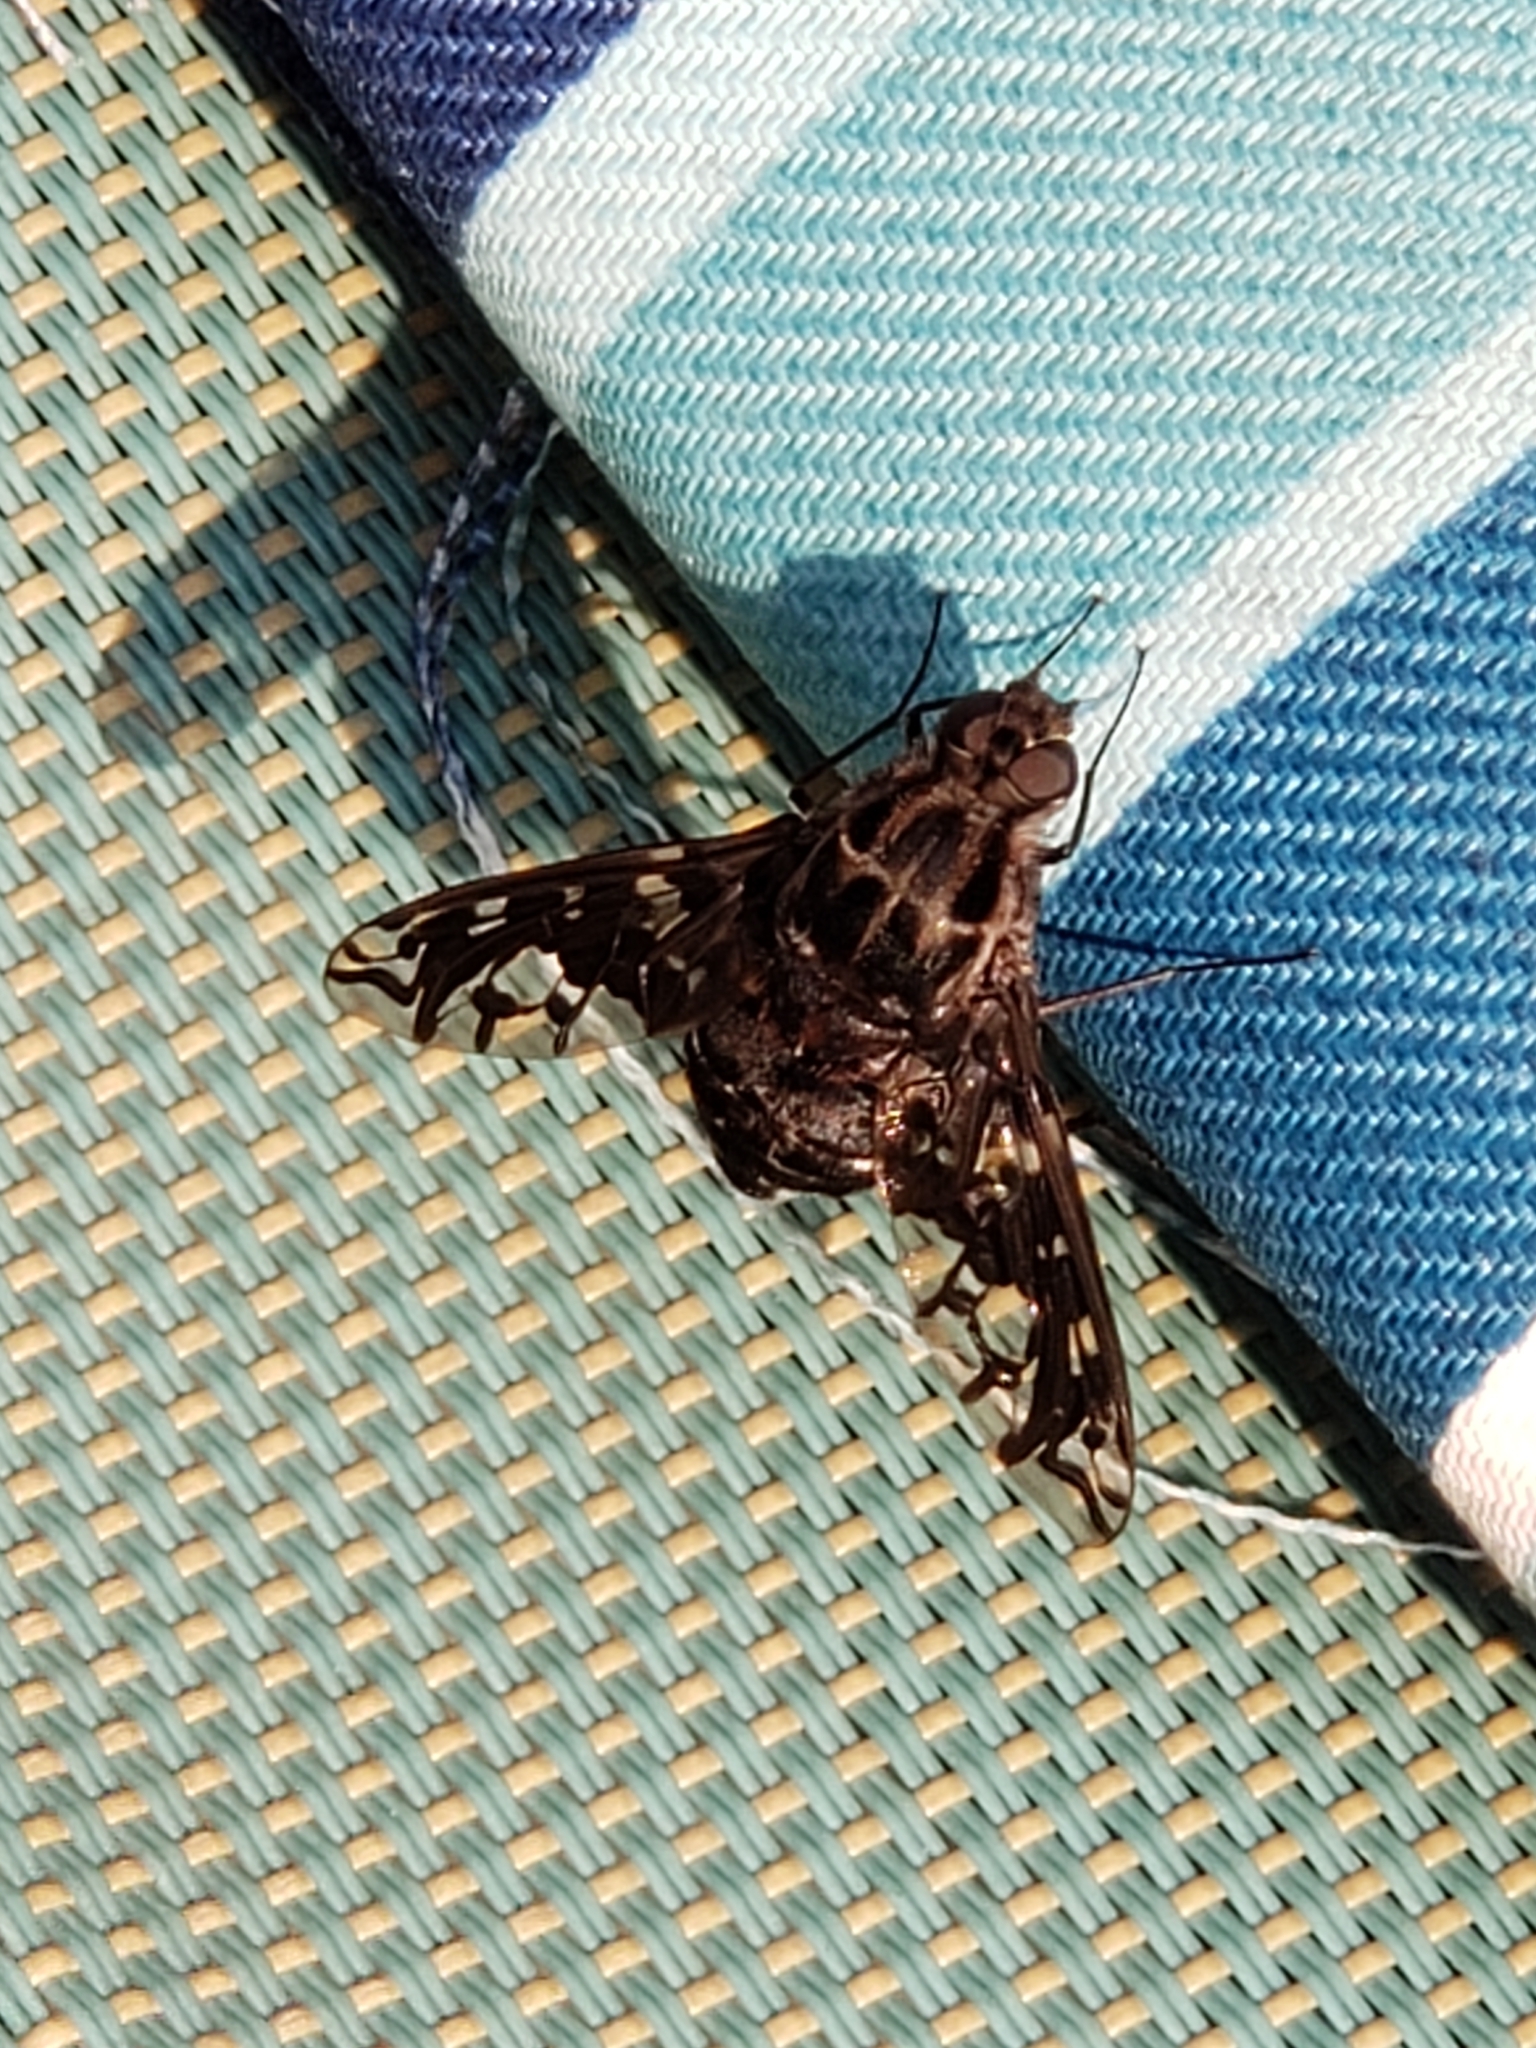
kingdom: Animalia
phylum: Arthropoda
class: Insecta
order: Diptera
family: Bombyliidae
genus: Xenox
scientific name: Xenox tigrinus
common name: Tiger bee fly
